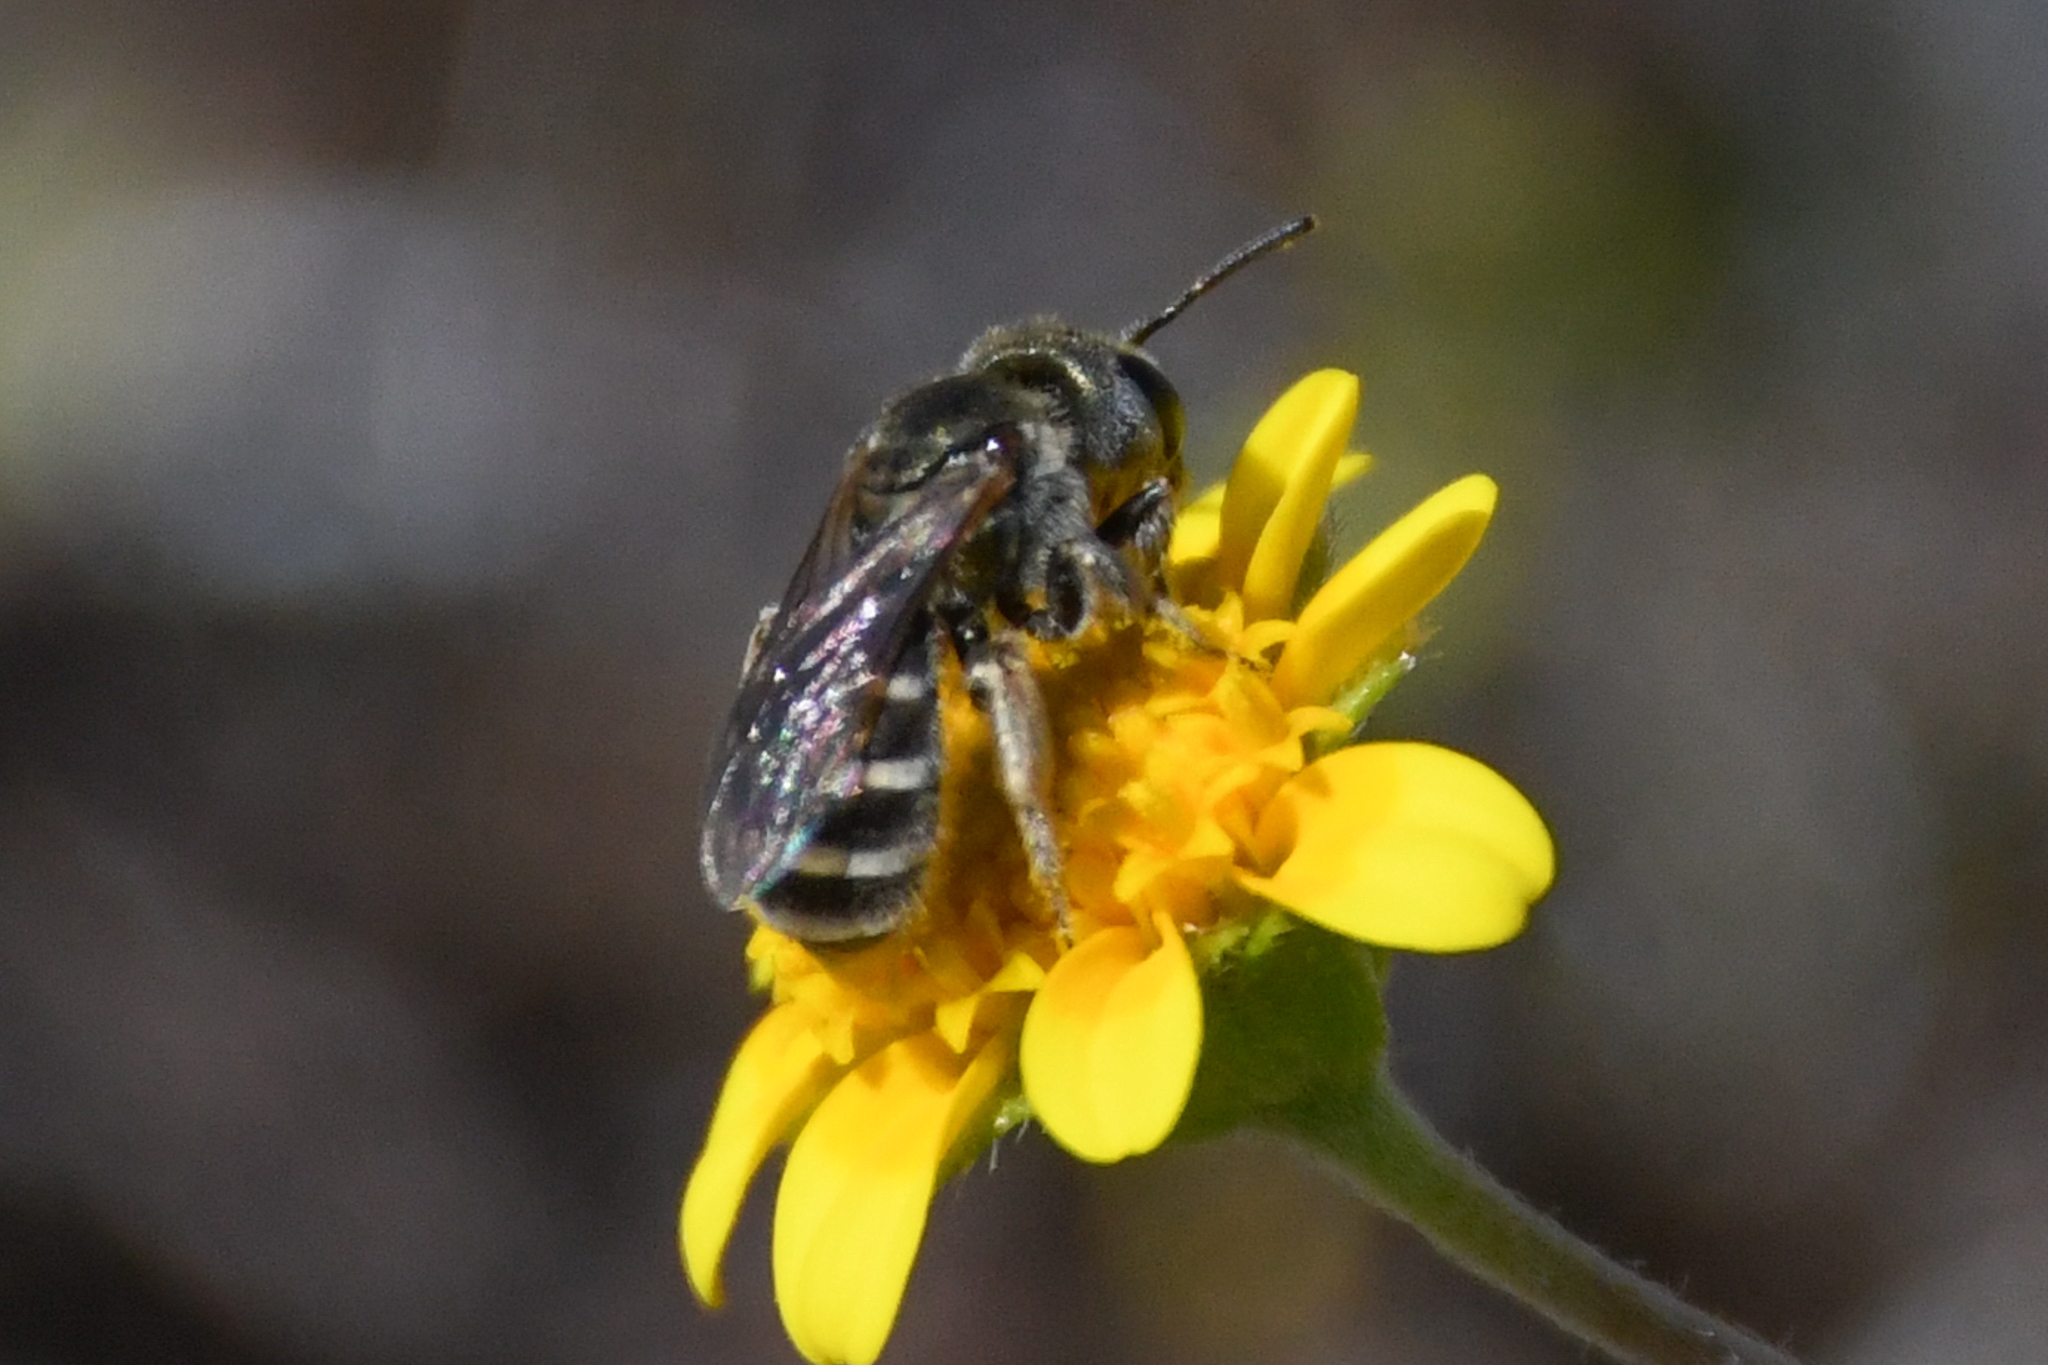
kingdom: Animalia
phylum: Arthropoda
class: Insecta
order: Hymenoptera
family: Halictidae
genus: Halictus
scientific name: Halictus tripartitus
